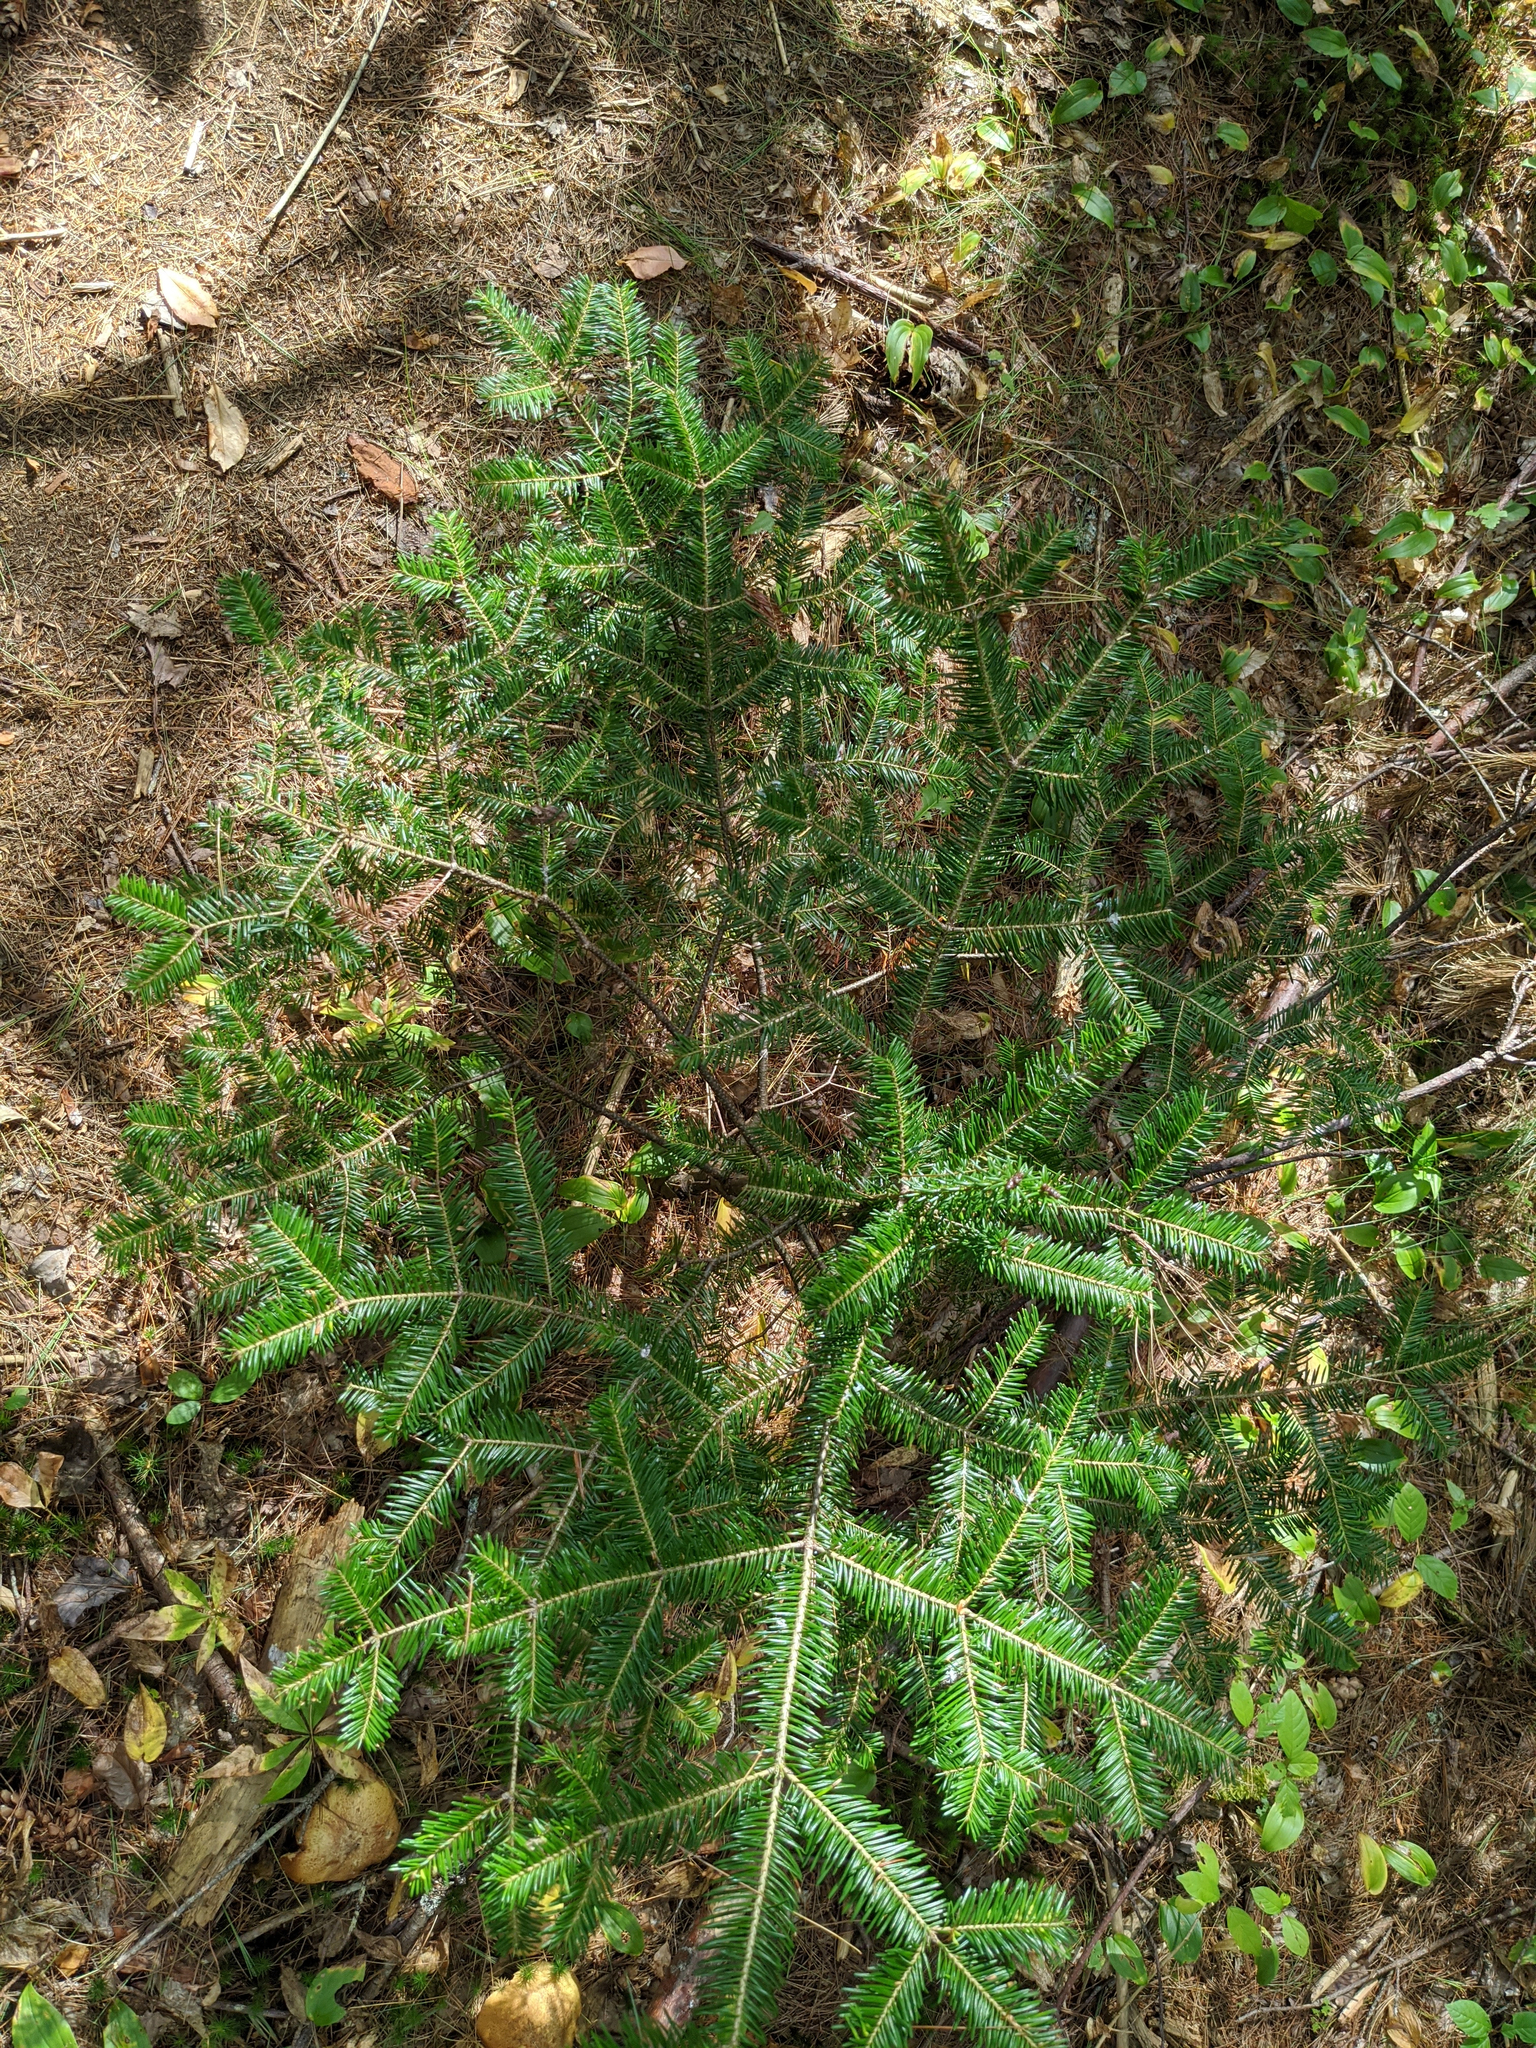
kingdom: Plantae
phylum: Tracheophyta
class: Pinopsida
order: Pinales
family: Pinaceae
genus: Abies
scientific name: Abies balsamea
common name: Balsam fir
